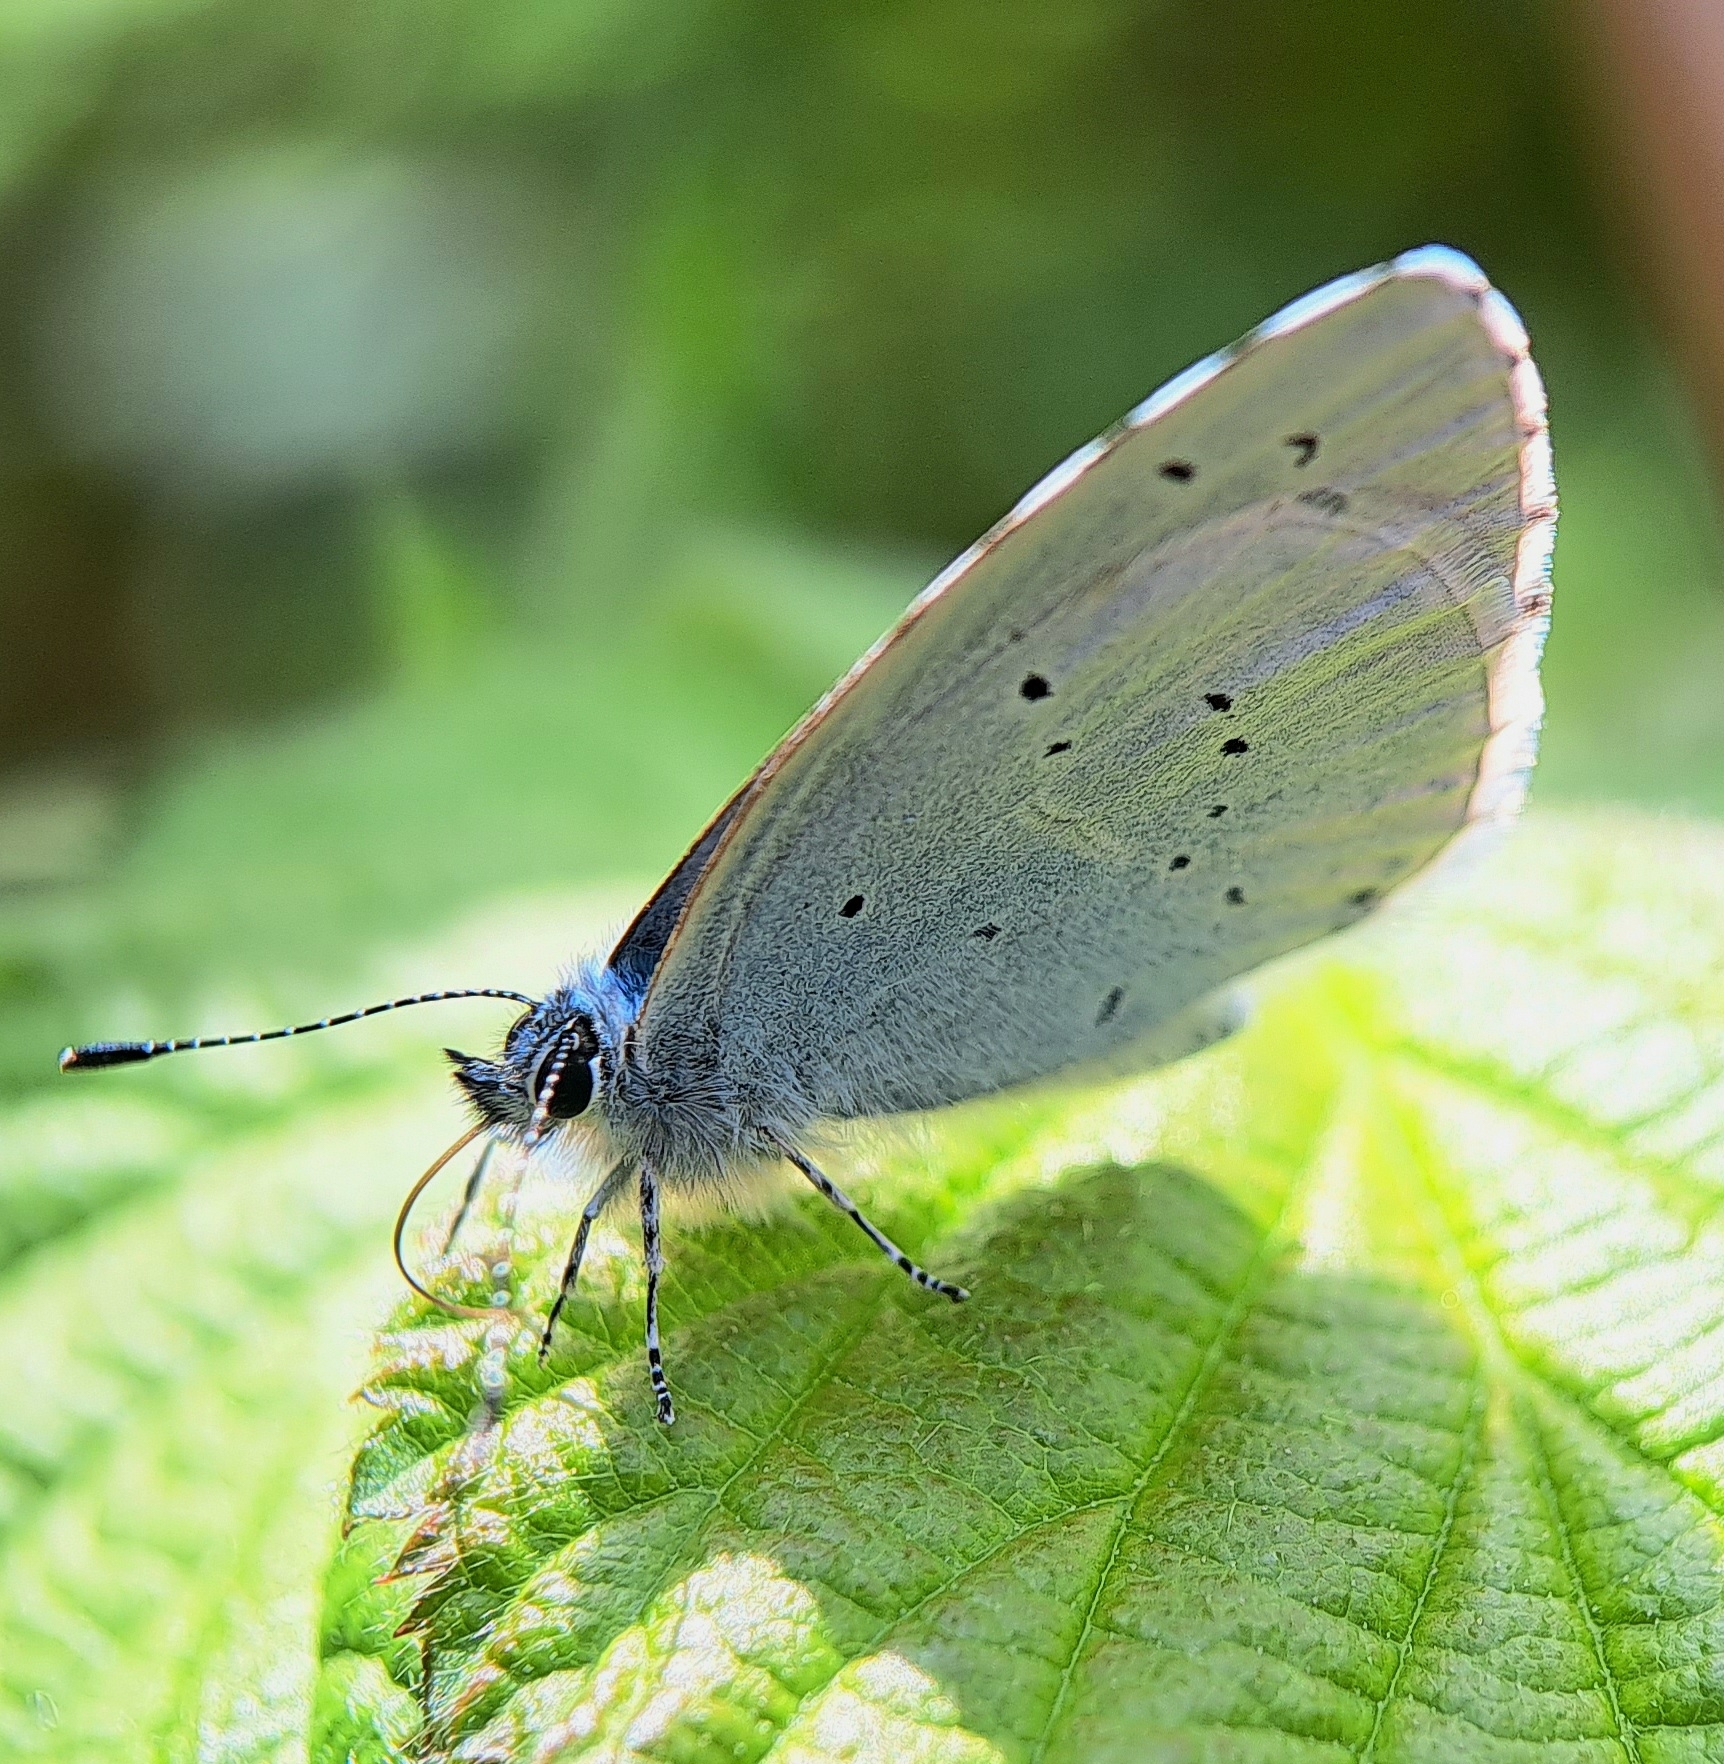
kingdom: Animalia
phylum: Arthropoda
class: Insecta
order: Lepidoptera
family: Lycaenidae
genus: Celastrina
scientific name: Celastrina argiolus
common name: Holly blue
